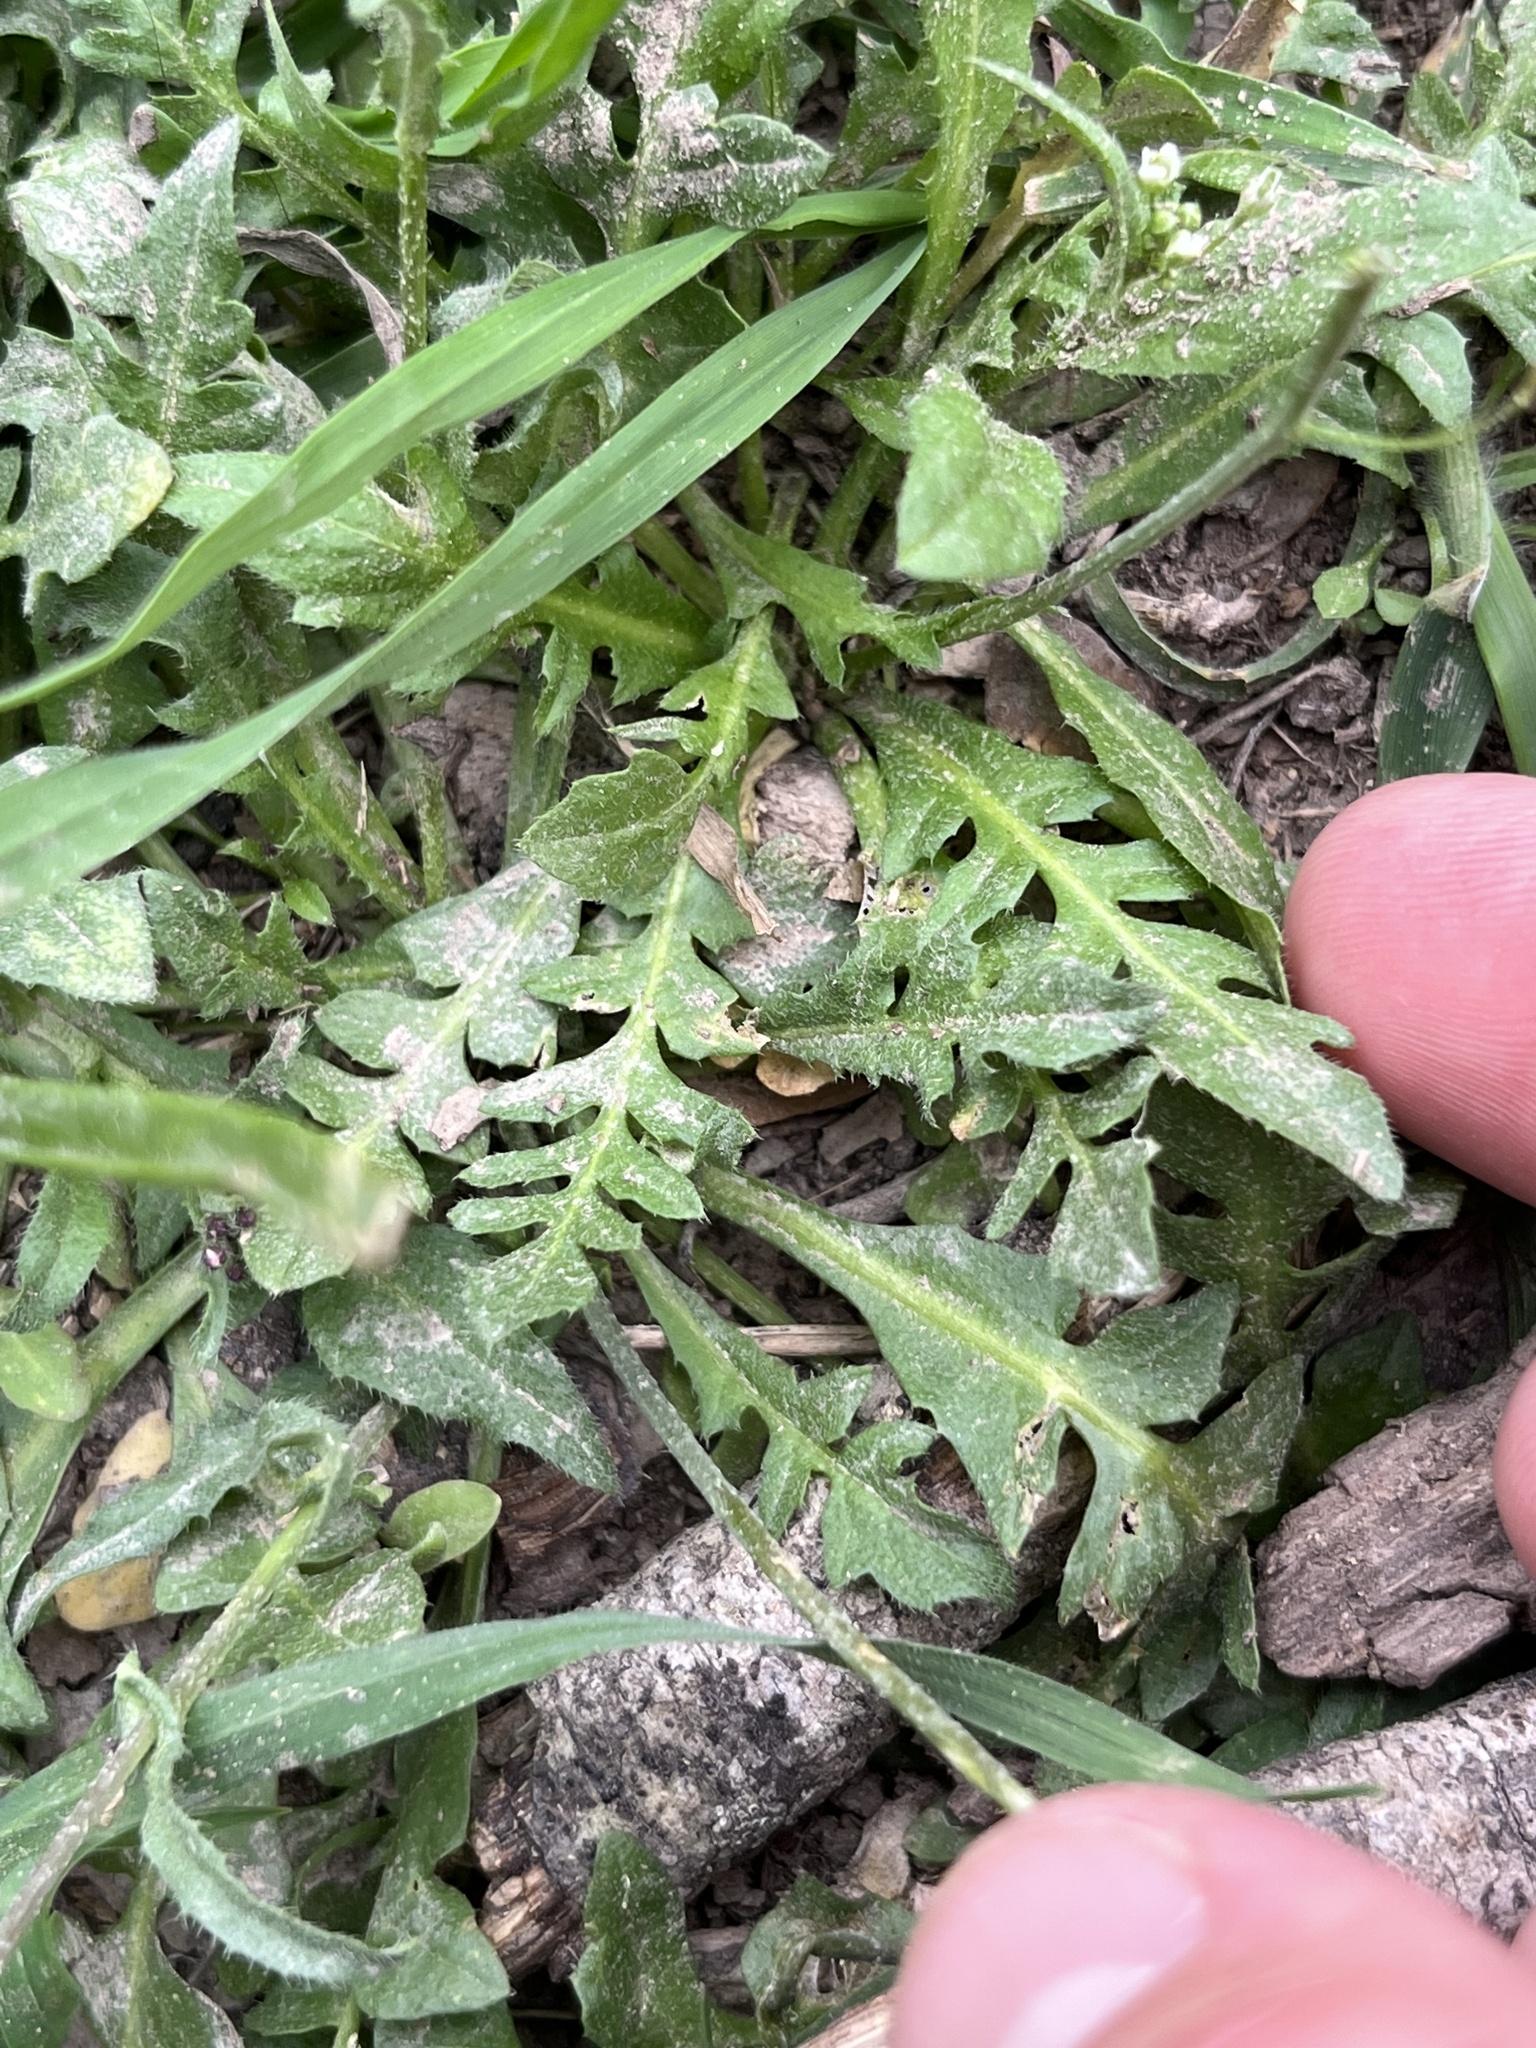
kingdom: Plantae
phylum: Tracheophyta
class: Magnoliopsida
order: Brassicales
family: Brassicaceae
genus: Capsella
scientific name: Capsella bursa-pastoris
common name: Shepherd's purse
